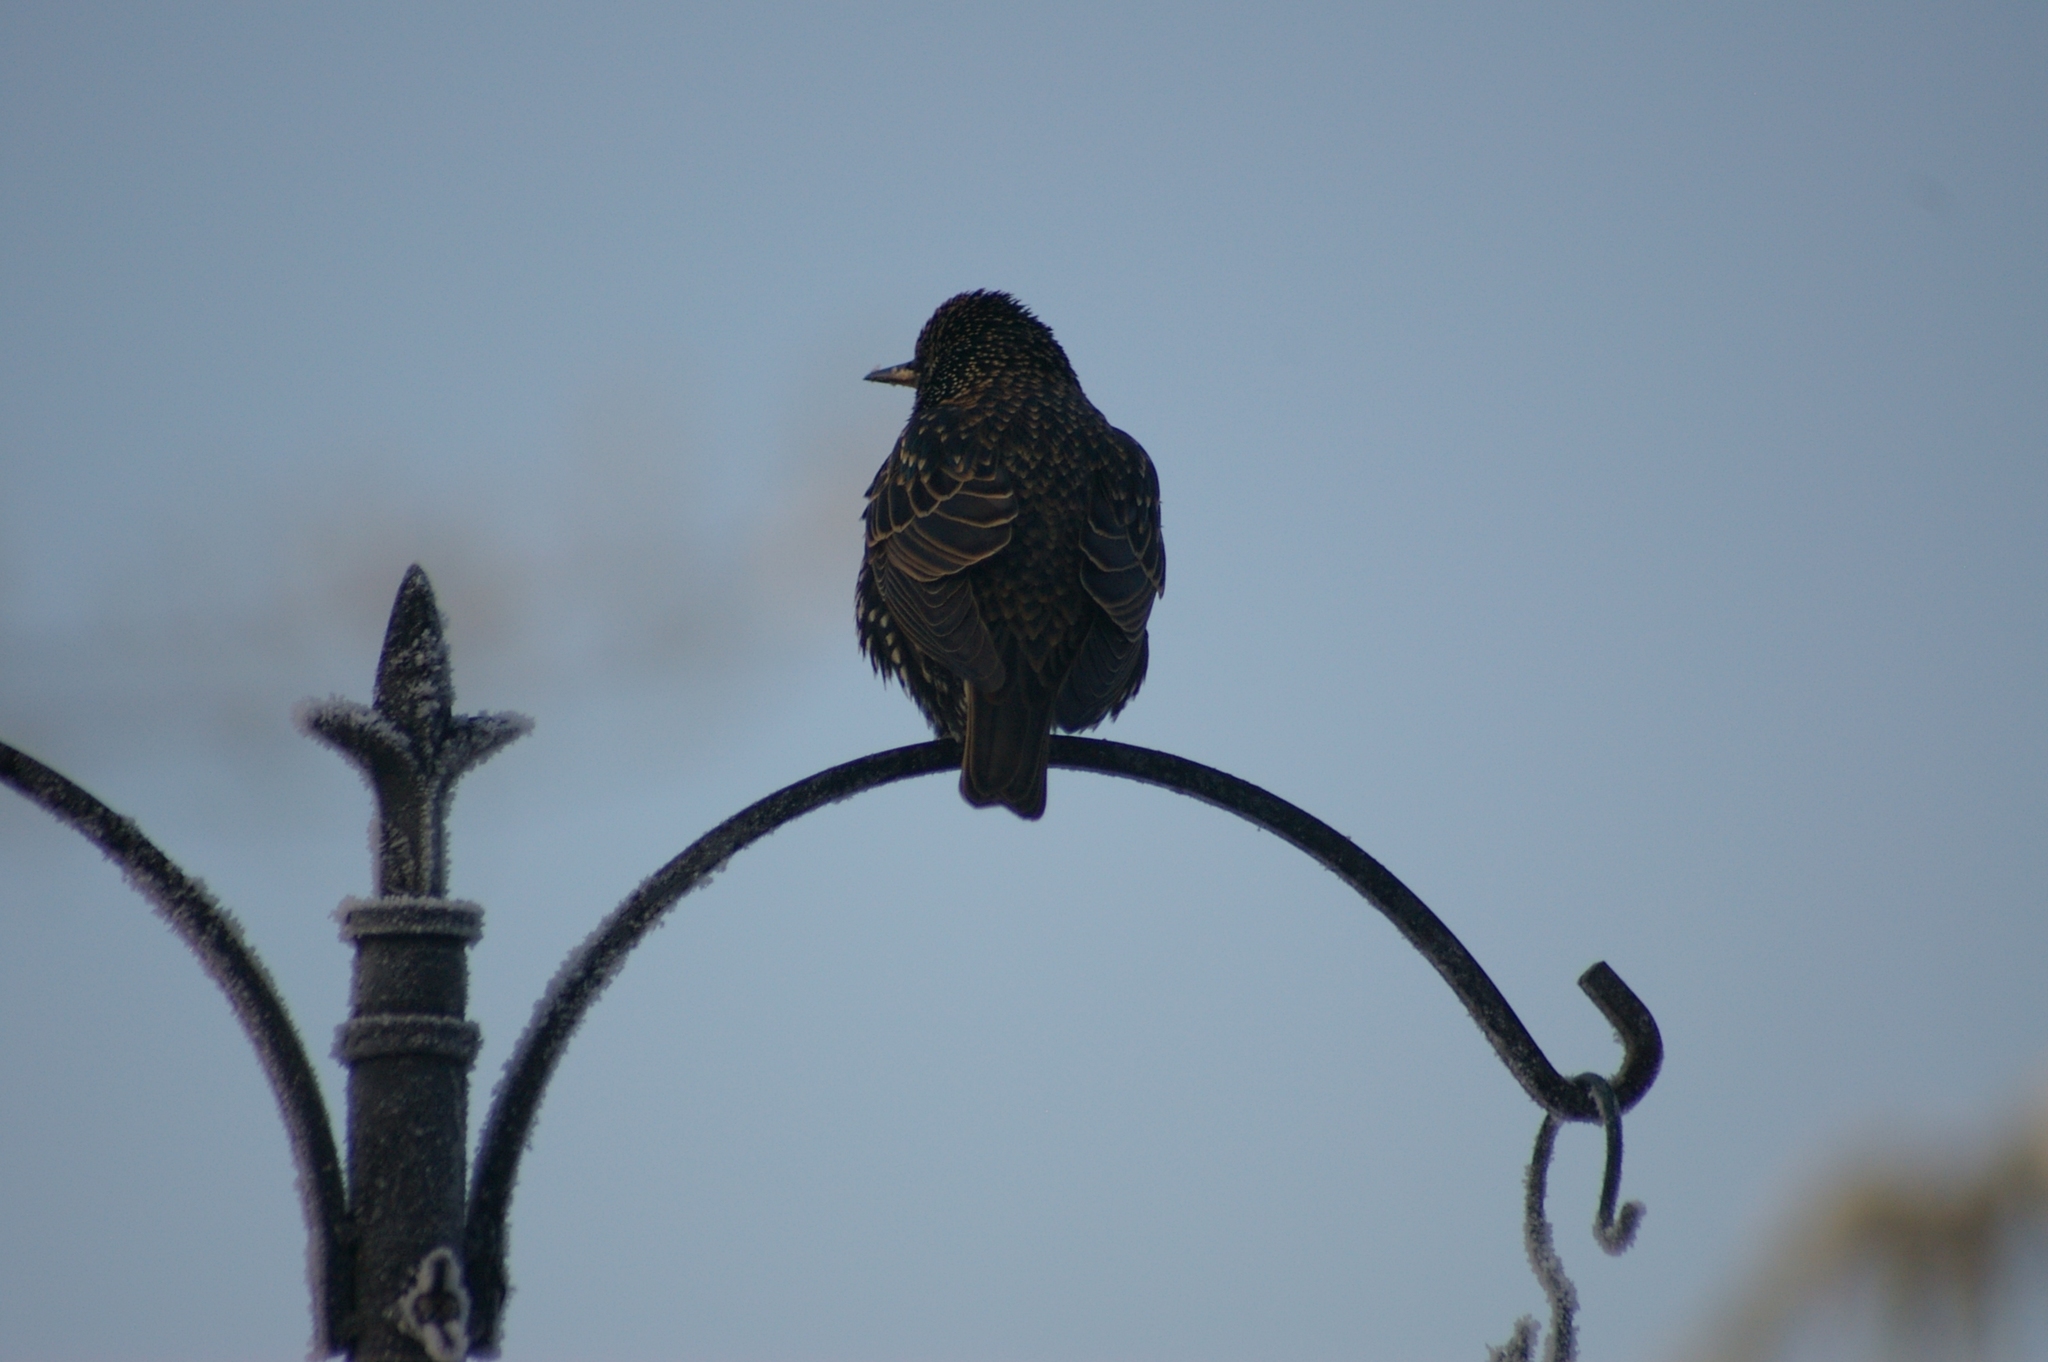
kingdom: Animalia
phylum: Chordata
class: Aves
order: Passeriformes
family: Sturnidae
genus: Sturnus
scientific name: Sturnus vulgaris
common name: Common starling
